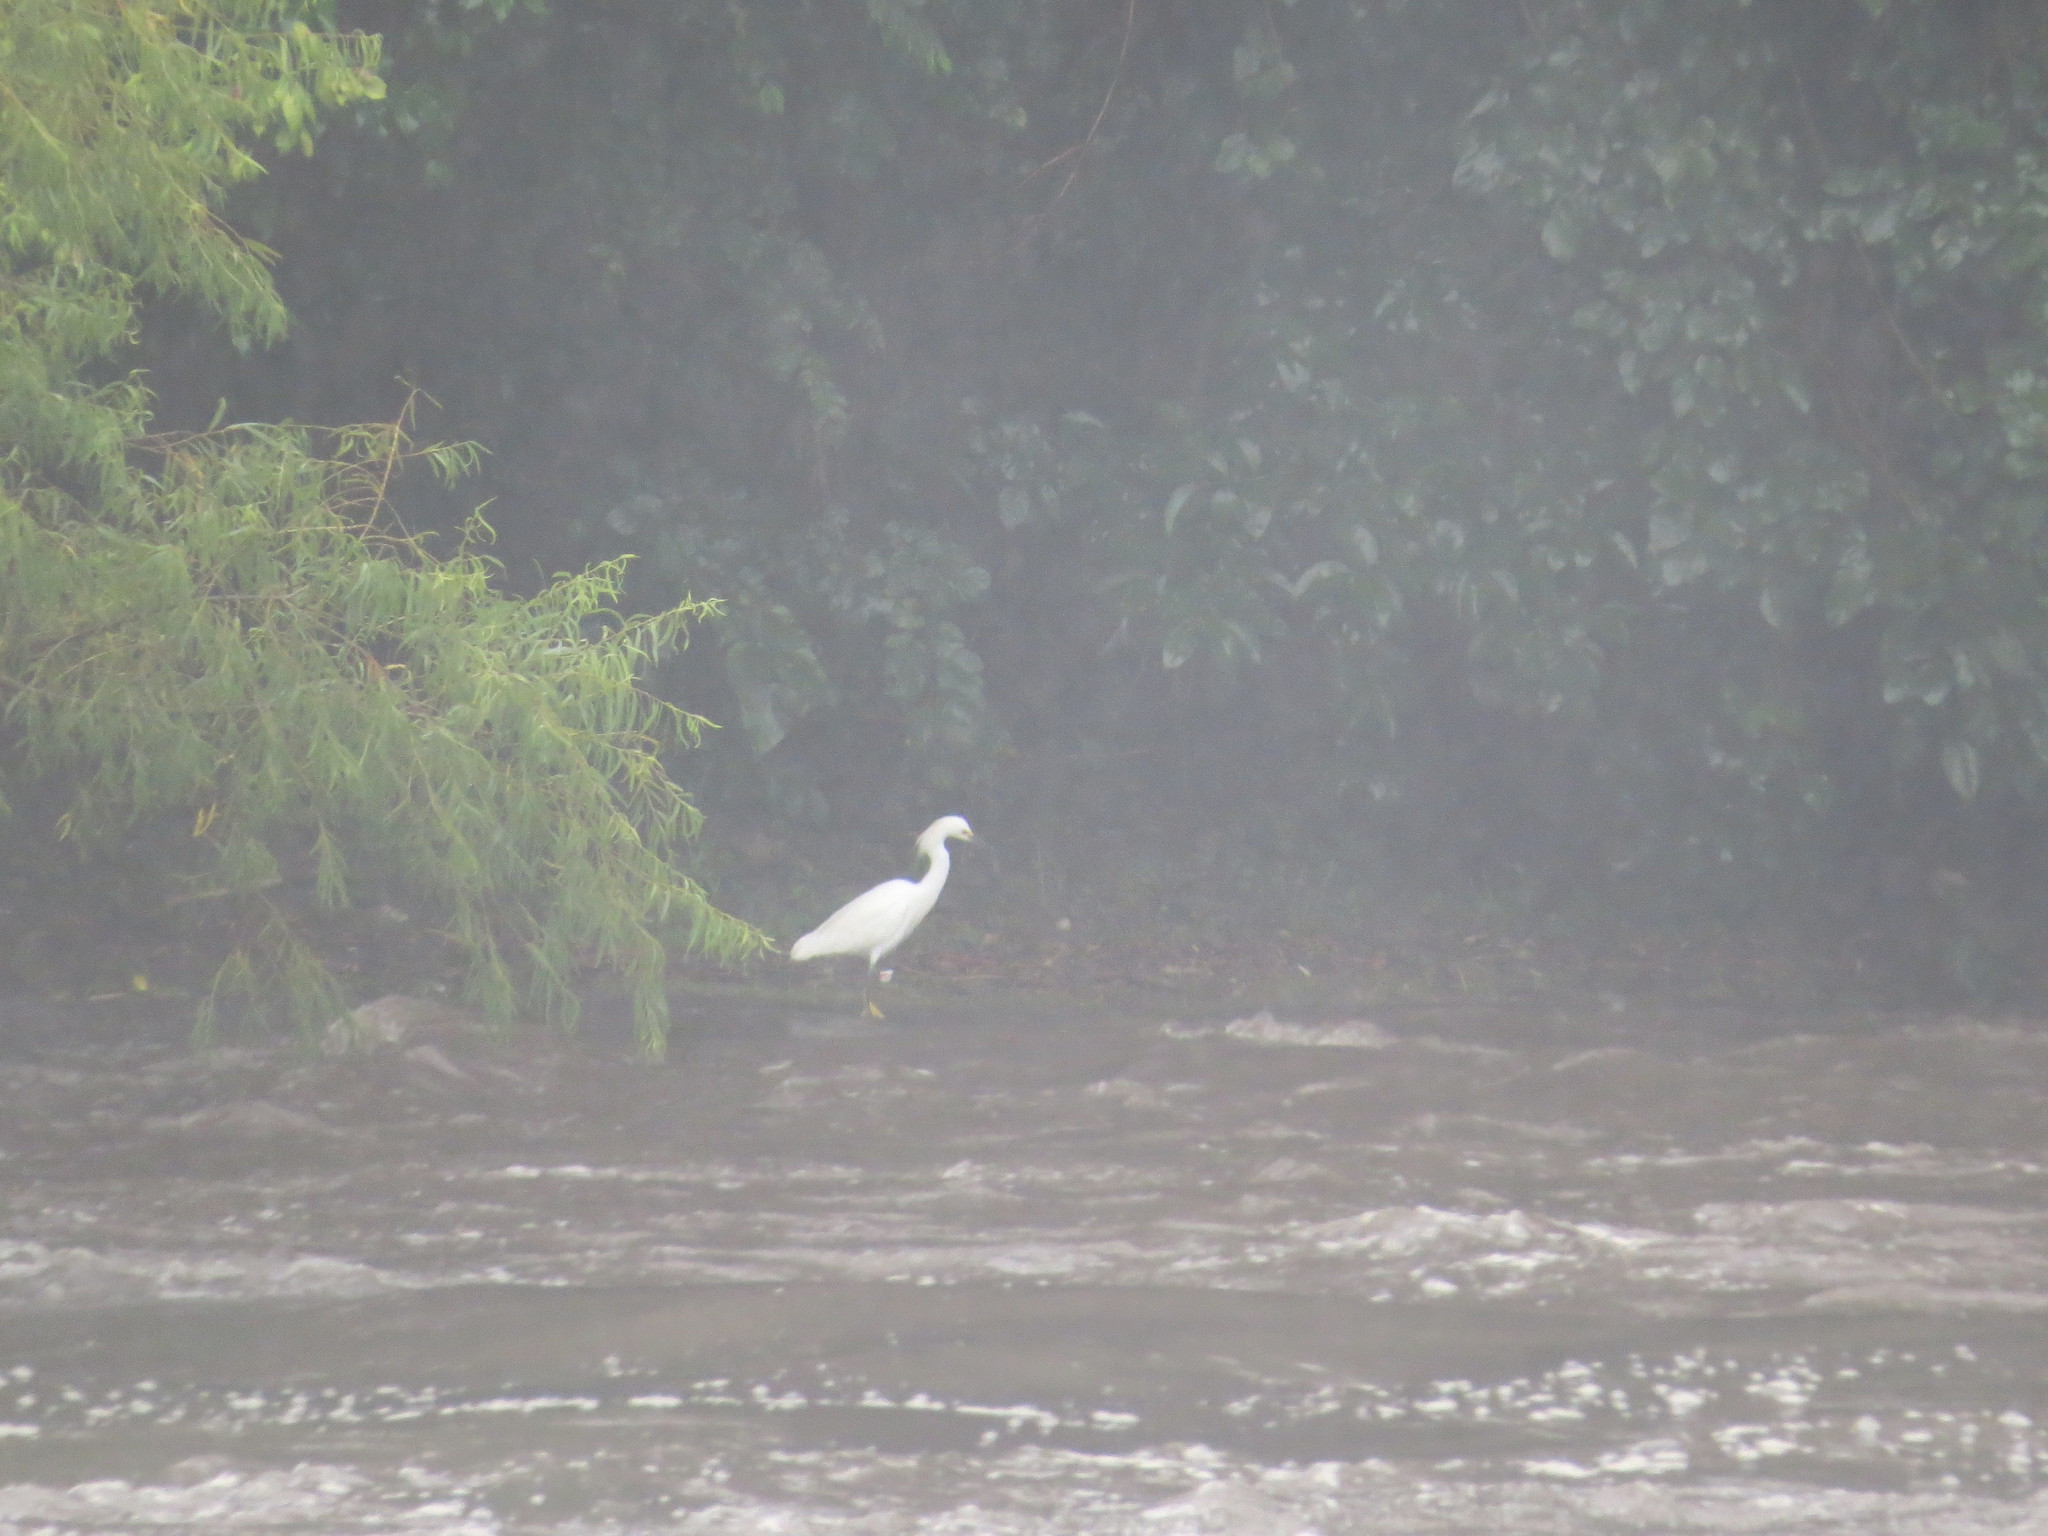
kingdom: Animalia
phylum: Chordata
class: Aves
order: Pelecaniformes
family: Ardeidae
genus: Egretta
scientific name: Egretta thula
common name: Snowy egret
